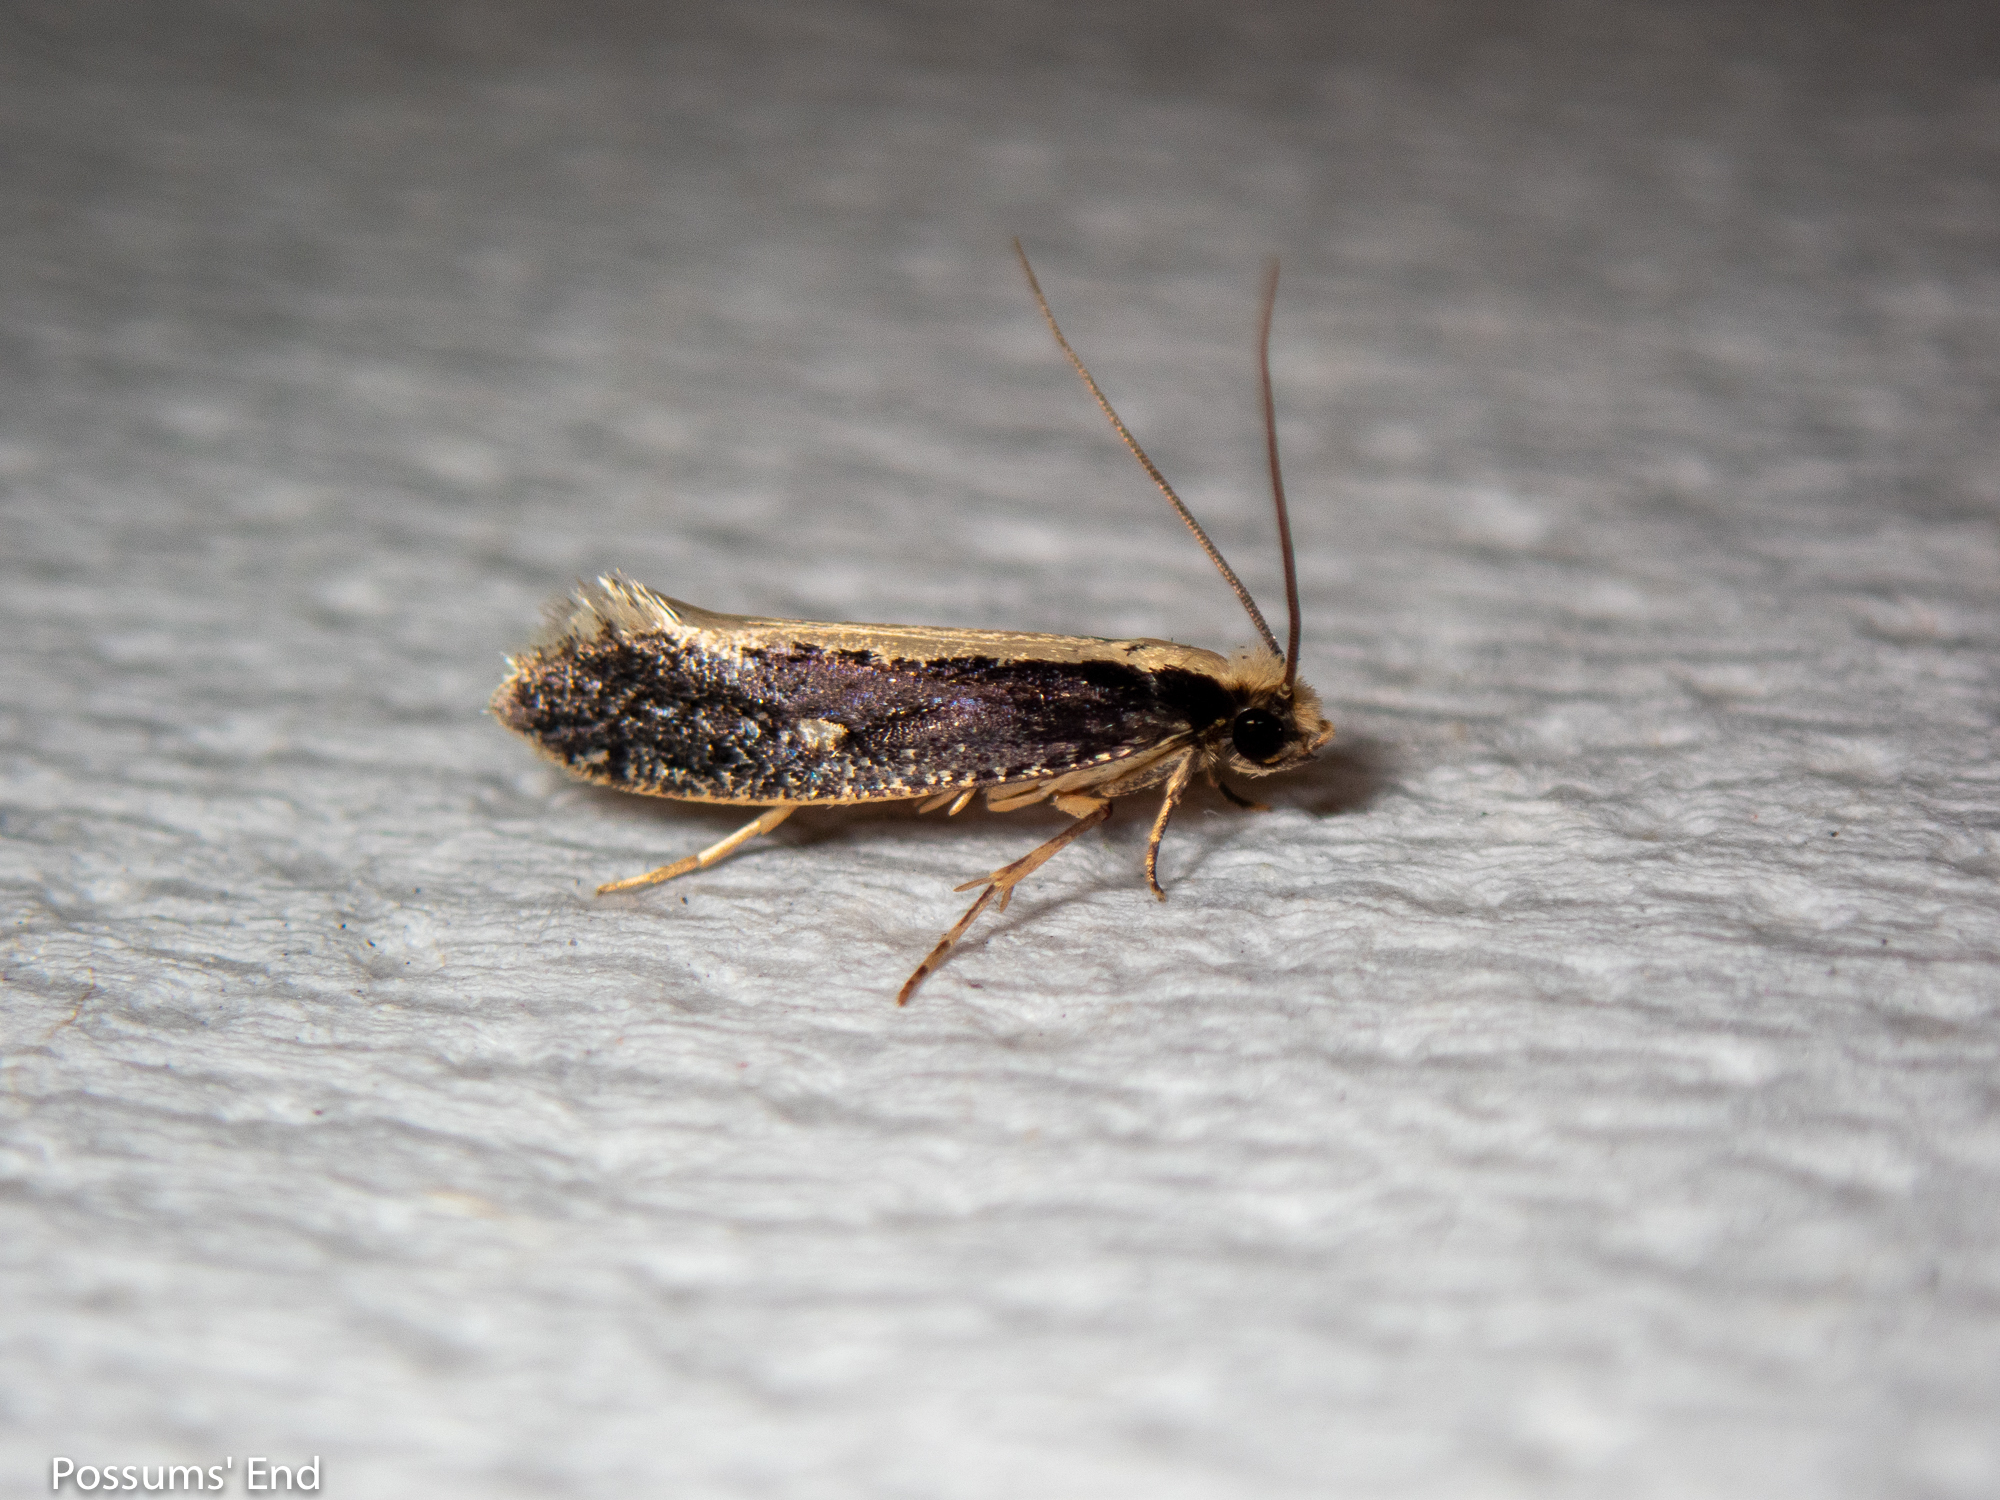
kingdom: Animalia
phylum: Arthropoda
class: Insecta
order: Lepidoptera
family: Tineidae
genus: Monopis
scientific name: Monopis ethelella
